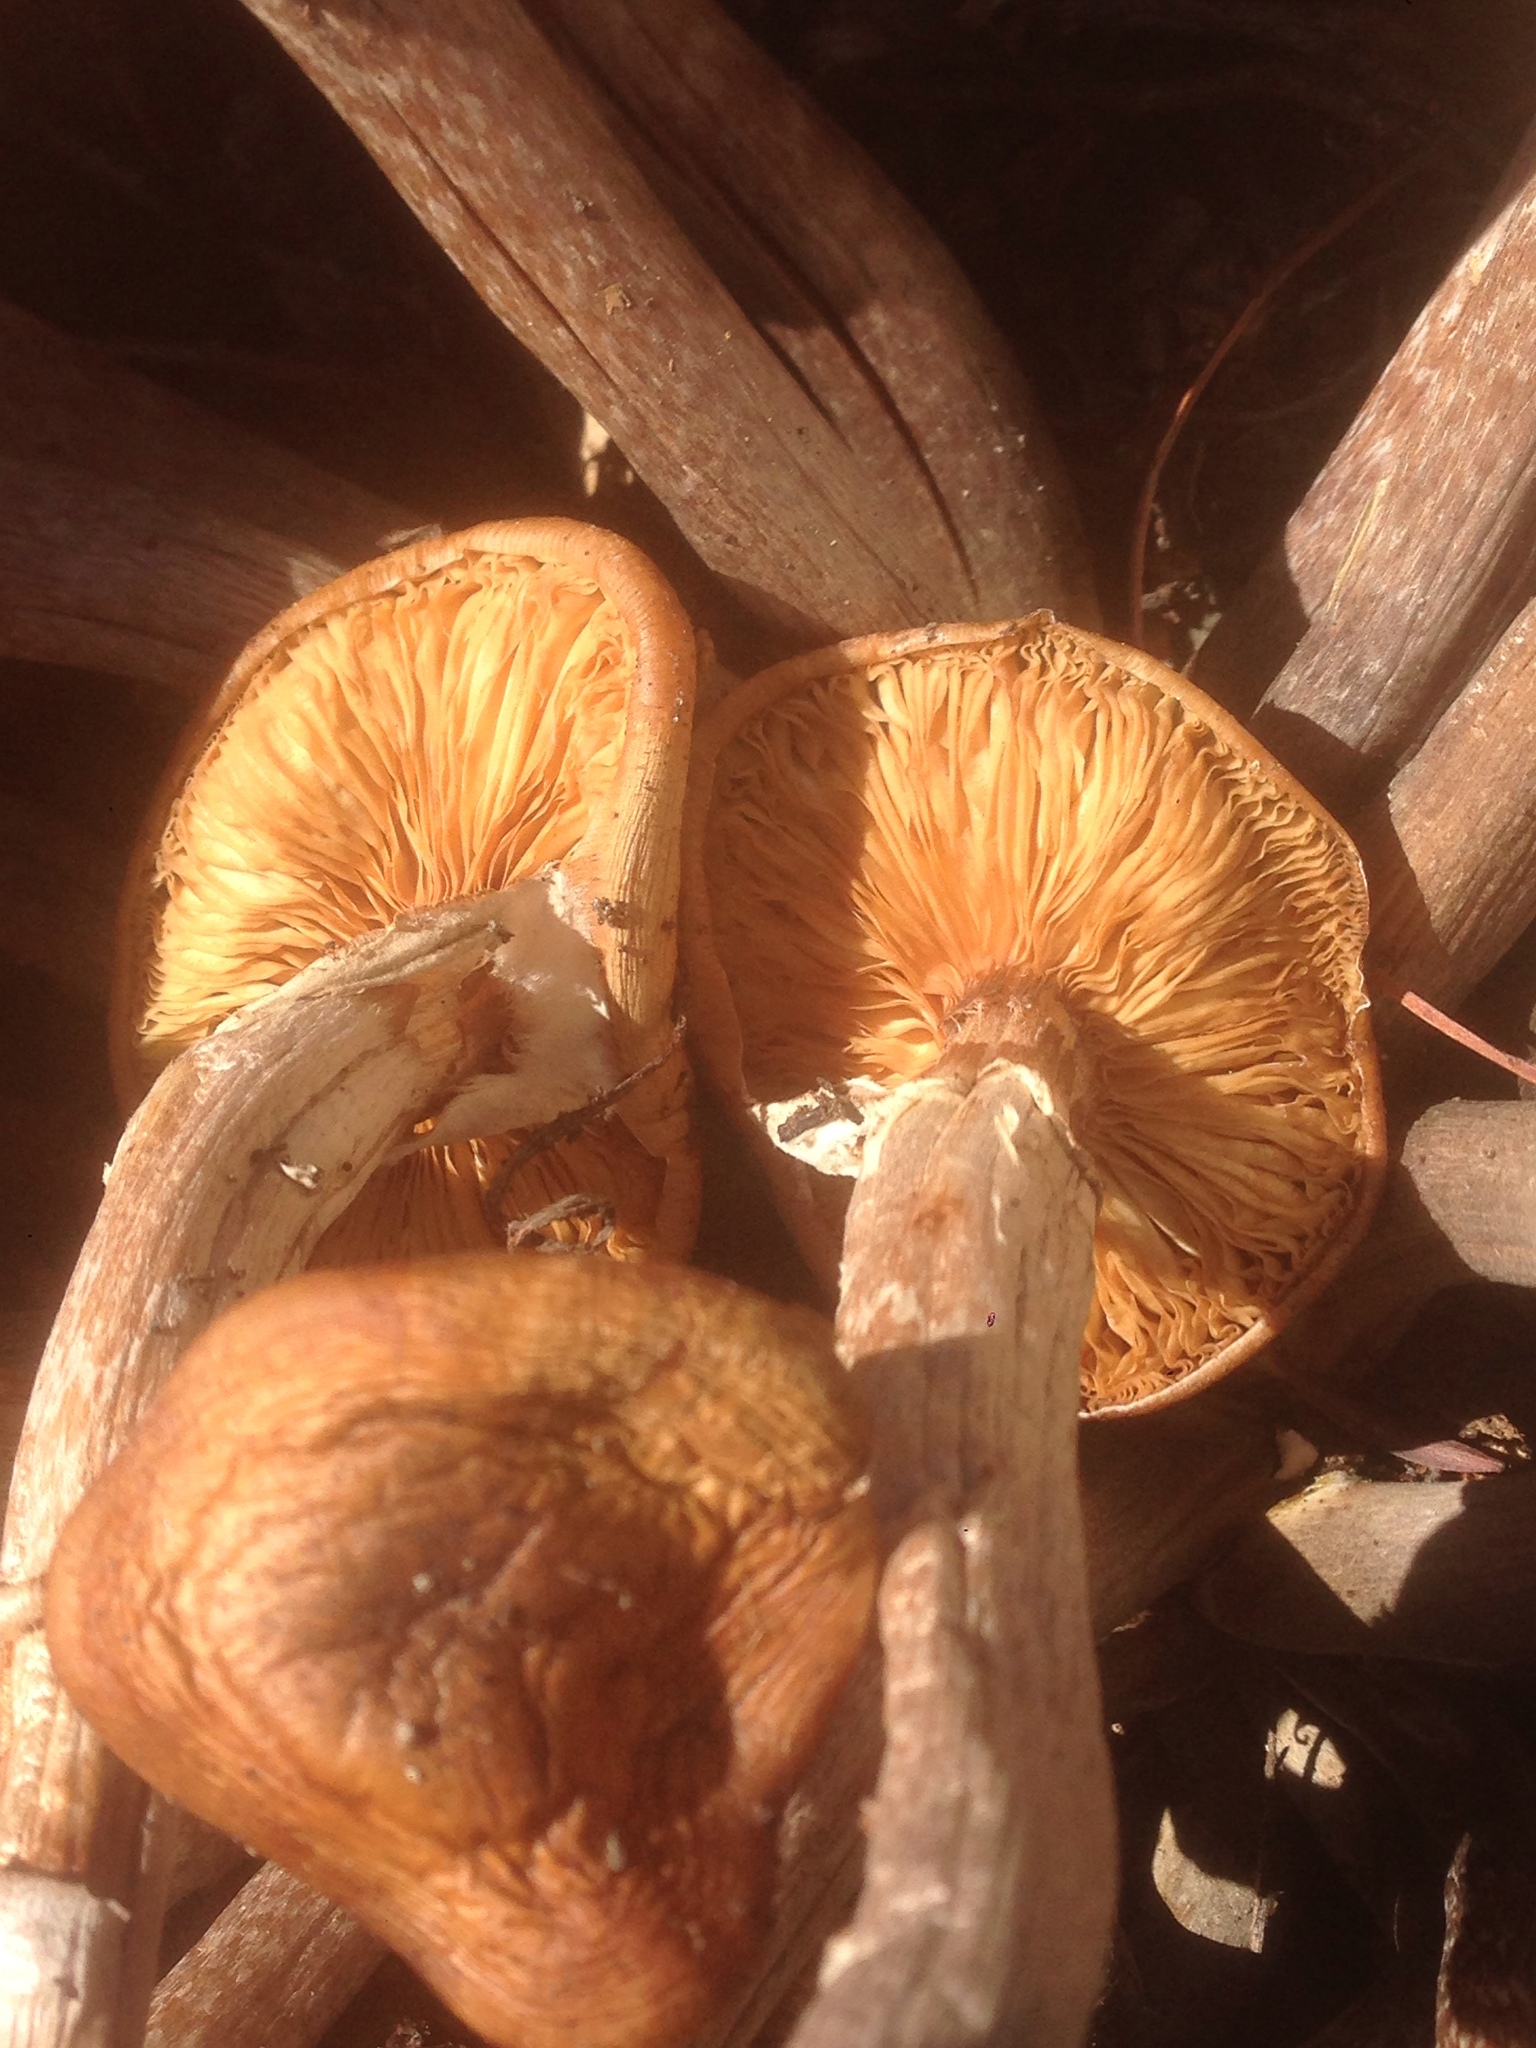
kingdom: Fungi
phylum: Basidiomycota
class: Agaricomycetes
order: Agaricales
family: Physalacriaceae
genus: Armillaria
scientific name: Armillaria mellea
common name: Honey fungus
